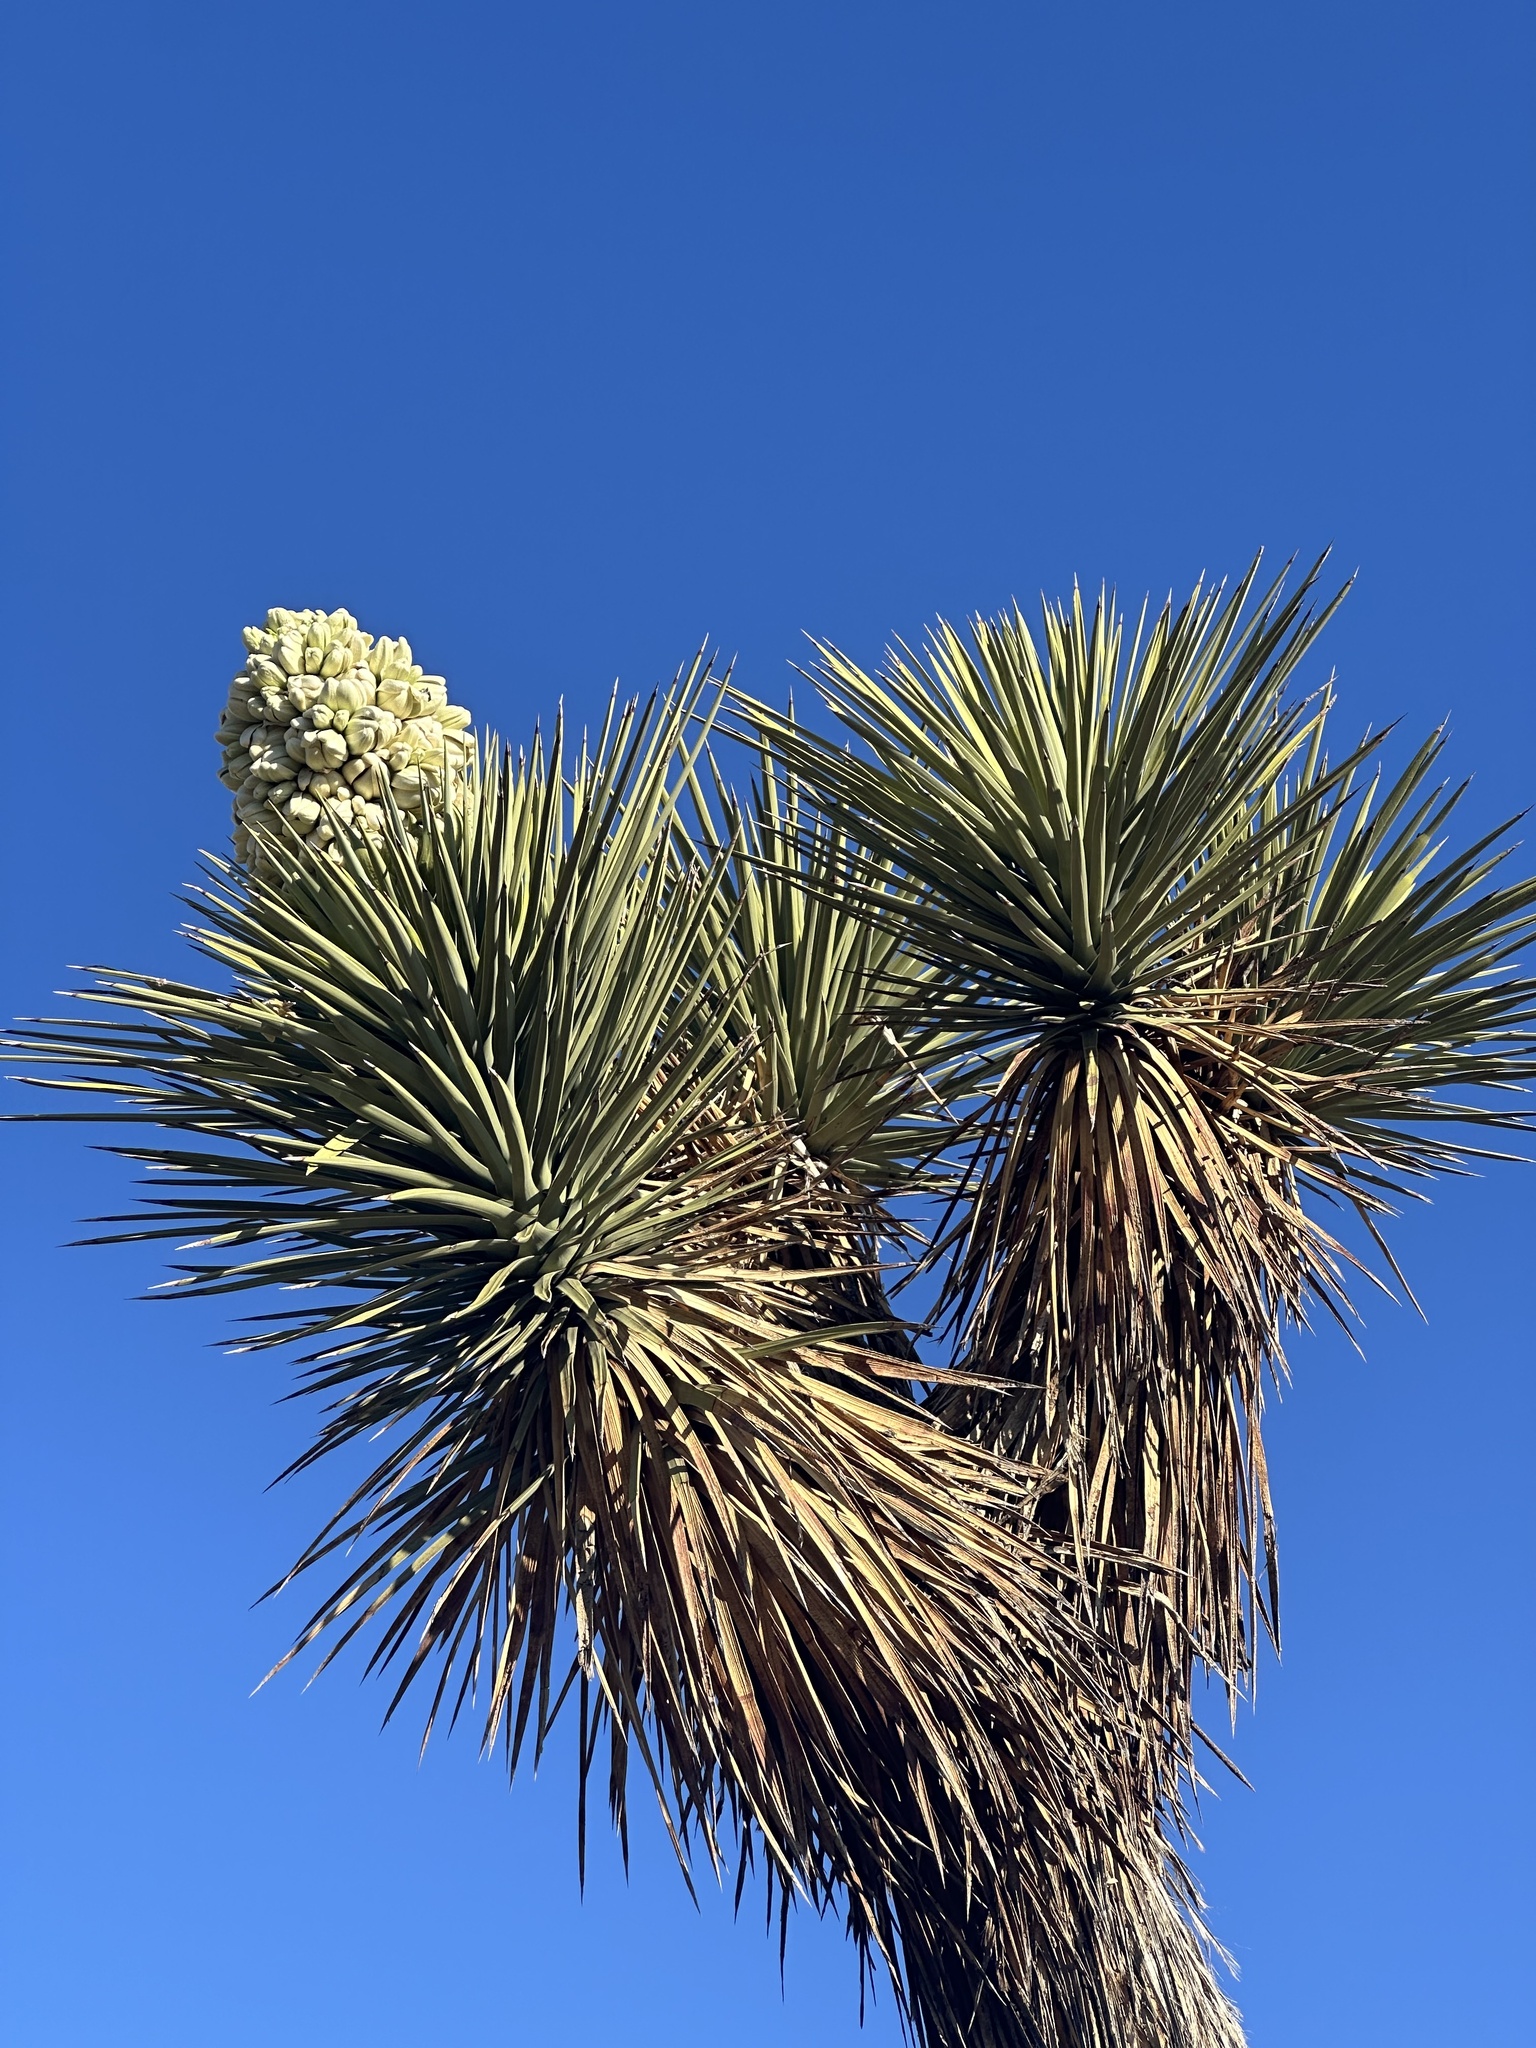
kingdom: Plantae
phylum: Tracheophyta
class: Liliopsida
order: Asparagales
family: Asparagaceae
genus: Yucca
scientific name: Yucca brevifolia
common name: Joshua tree
